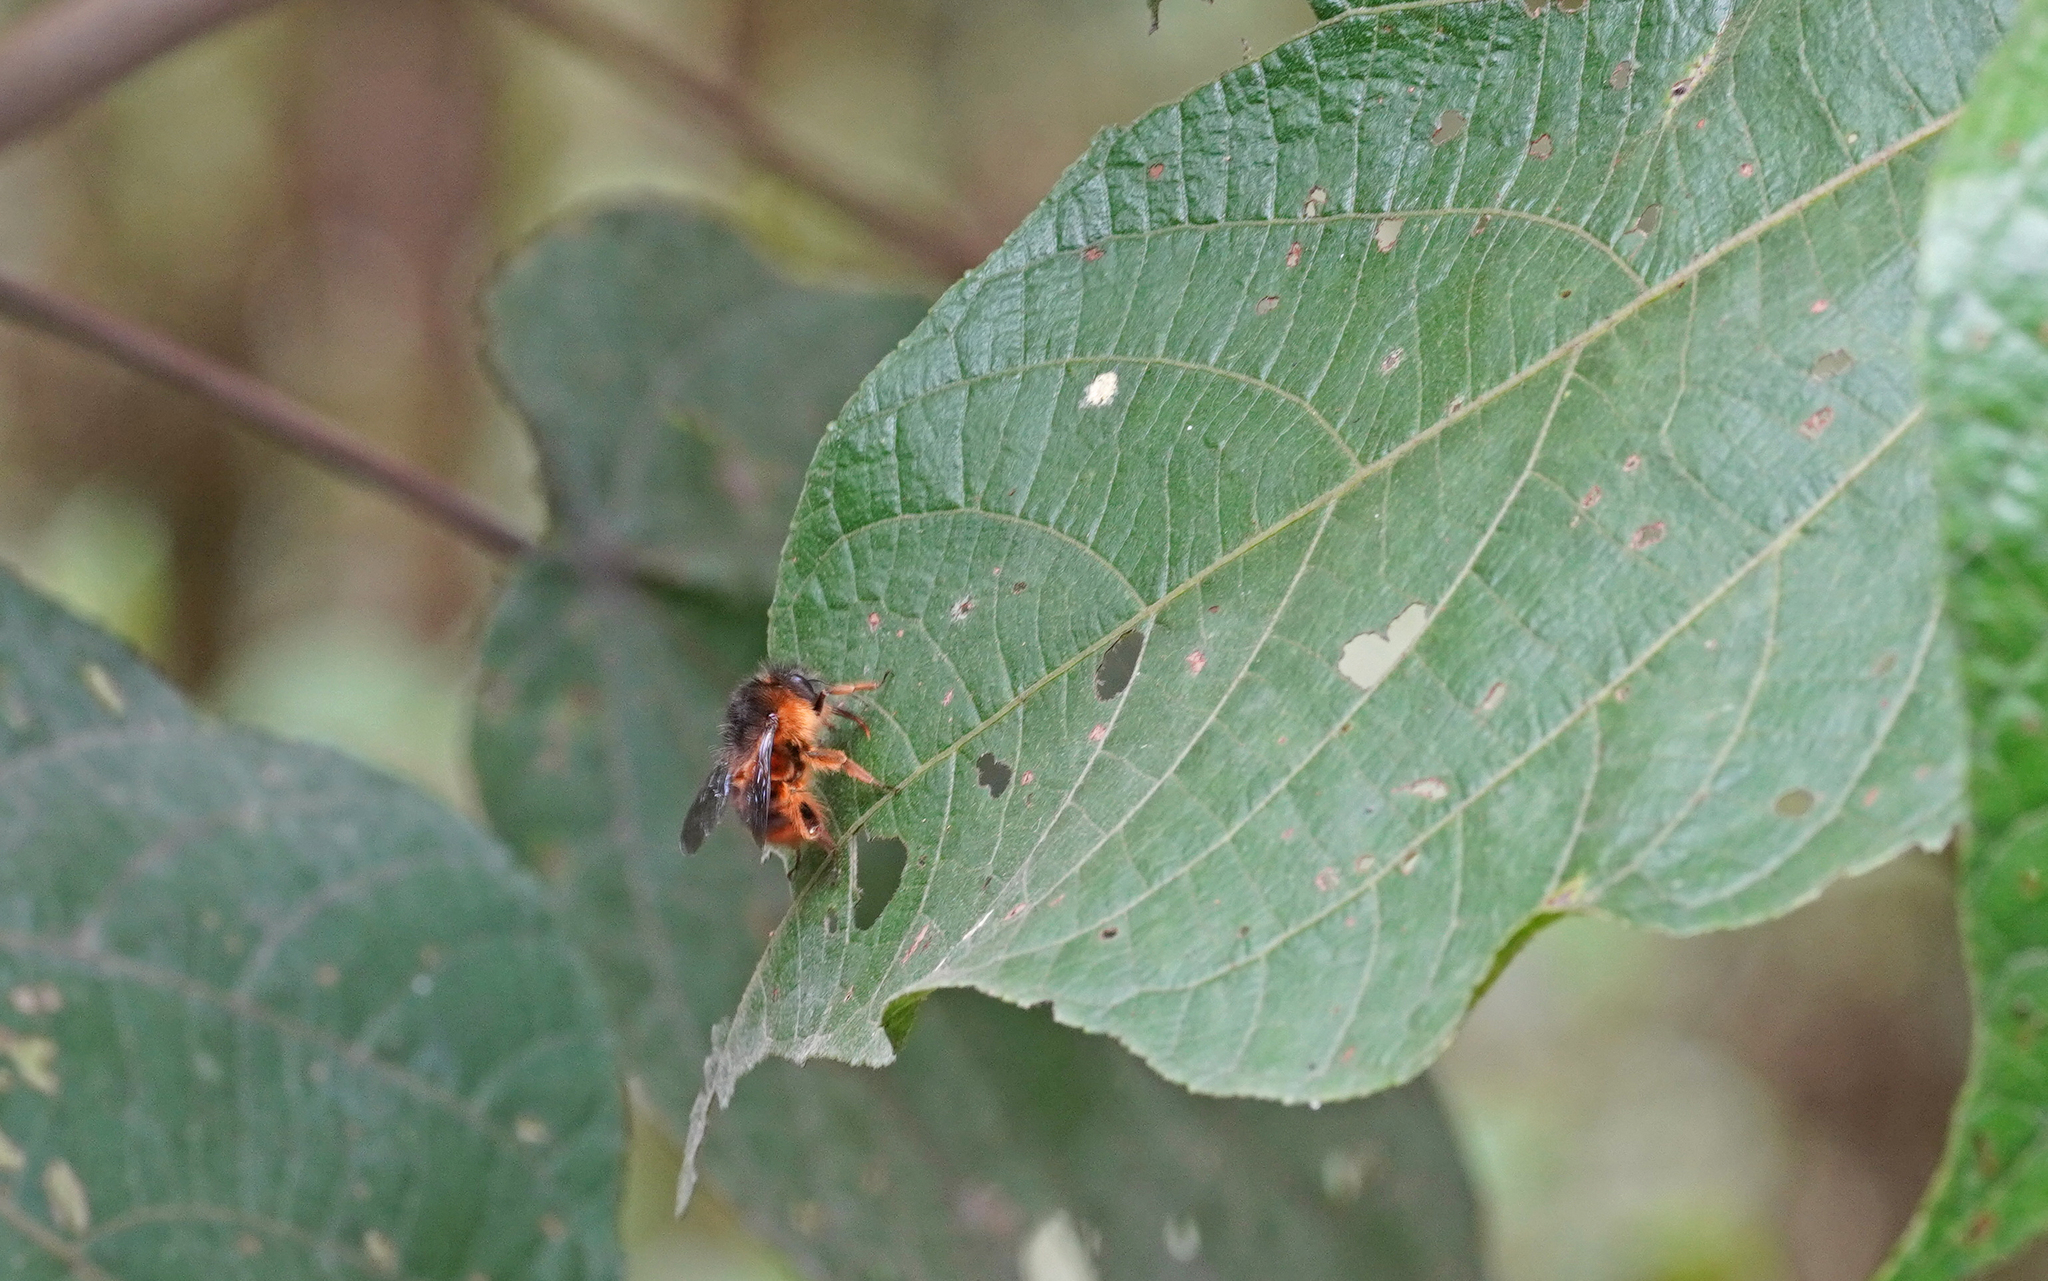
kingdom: Animalia
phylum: Arthropoda
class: Insecta
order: Hymenoptera
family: Apidae
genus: Bombus
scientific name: Bombus handlirschi
